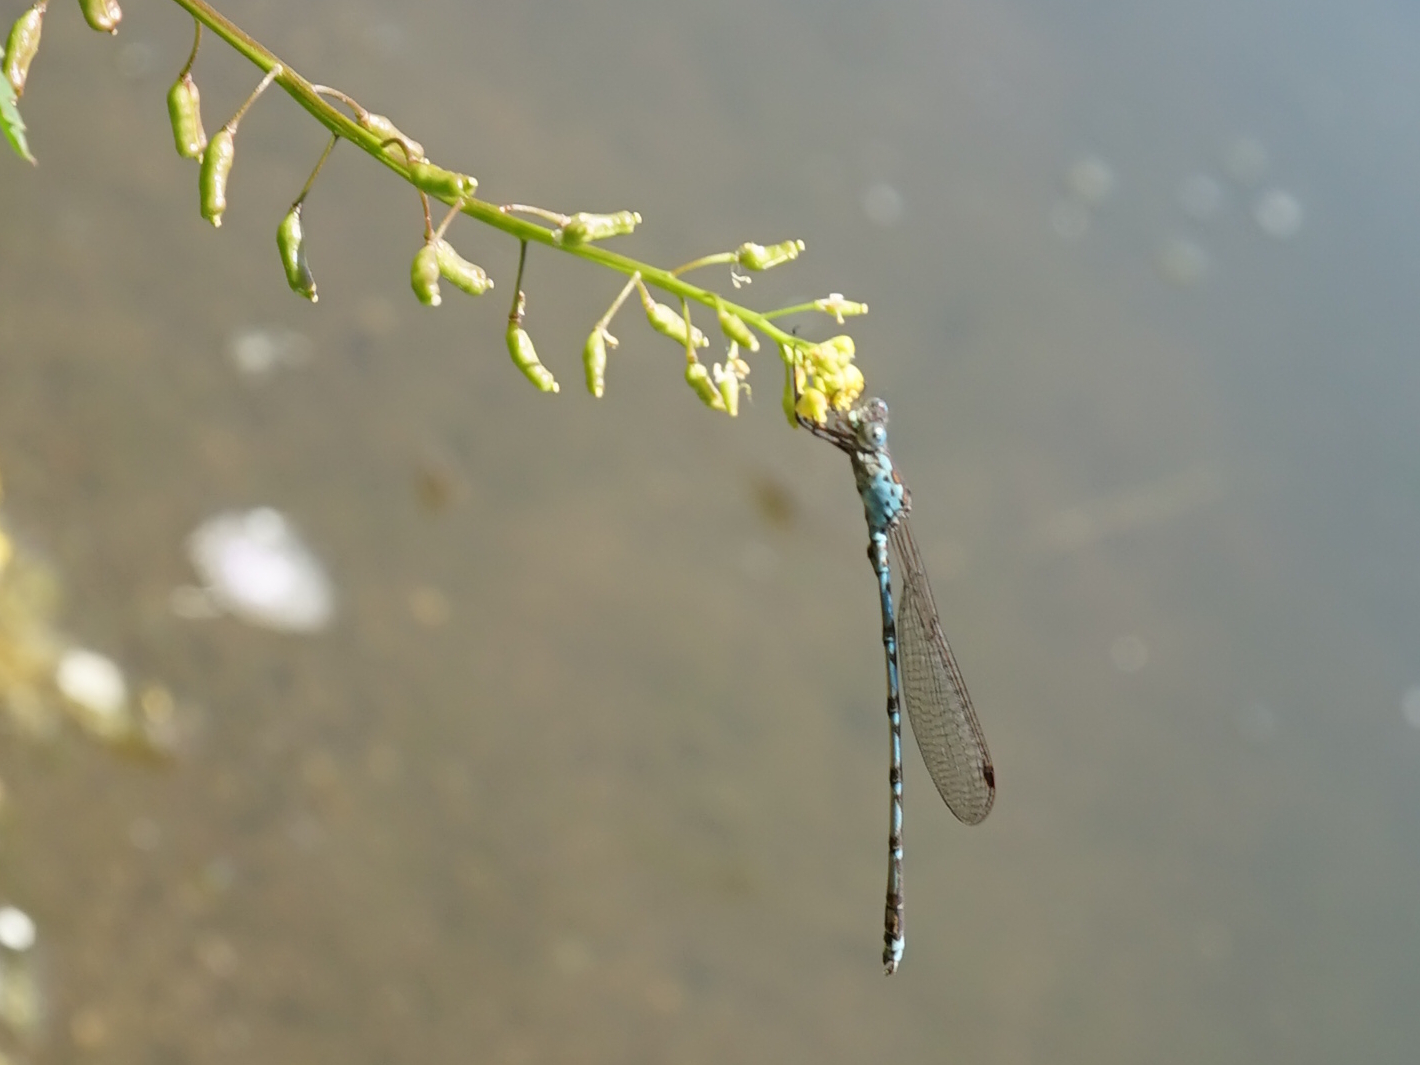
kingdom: Animalia
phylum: Arthropoda
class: Insecta
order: Odonata
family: Lestidae
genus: Indolestes
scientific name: Indolestes peregrinus
